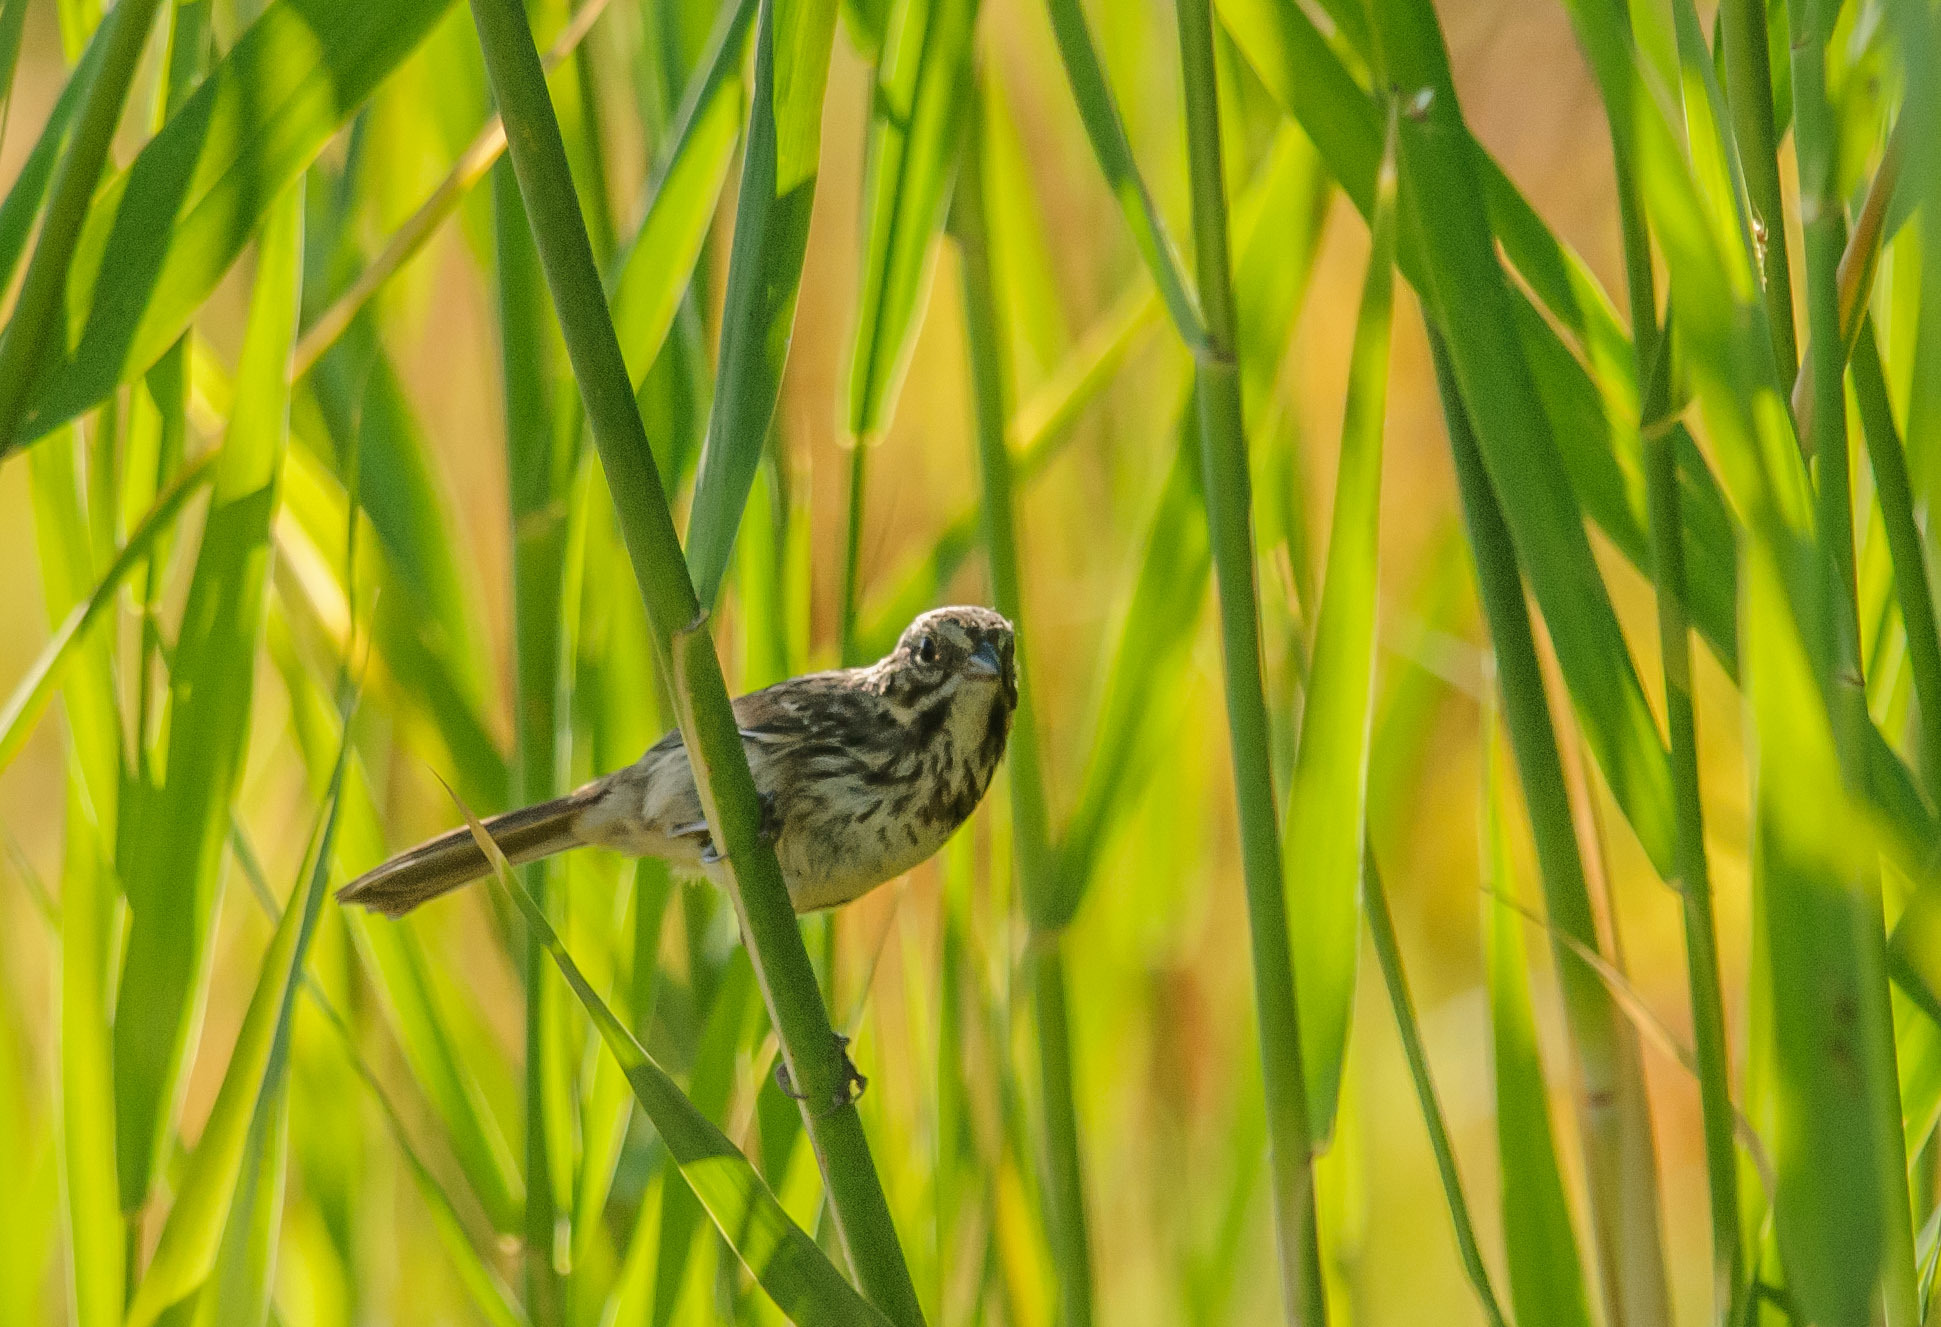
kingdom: Animalia
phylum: Chordata
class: Aves
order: Passeriformes
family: Passerellidae
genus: Melospiza
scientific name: Melospiza melodia
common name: Song sparrow
